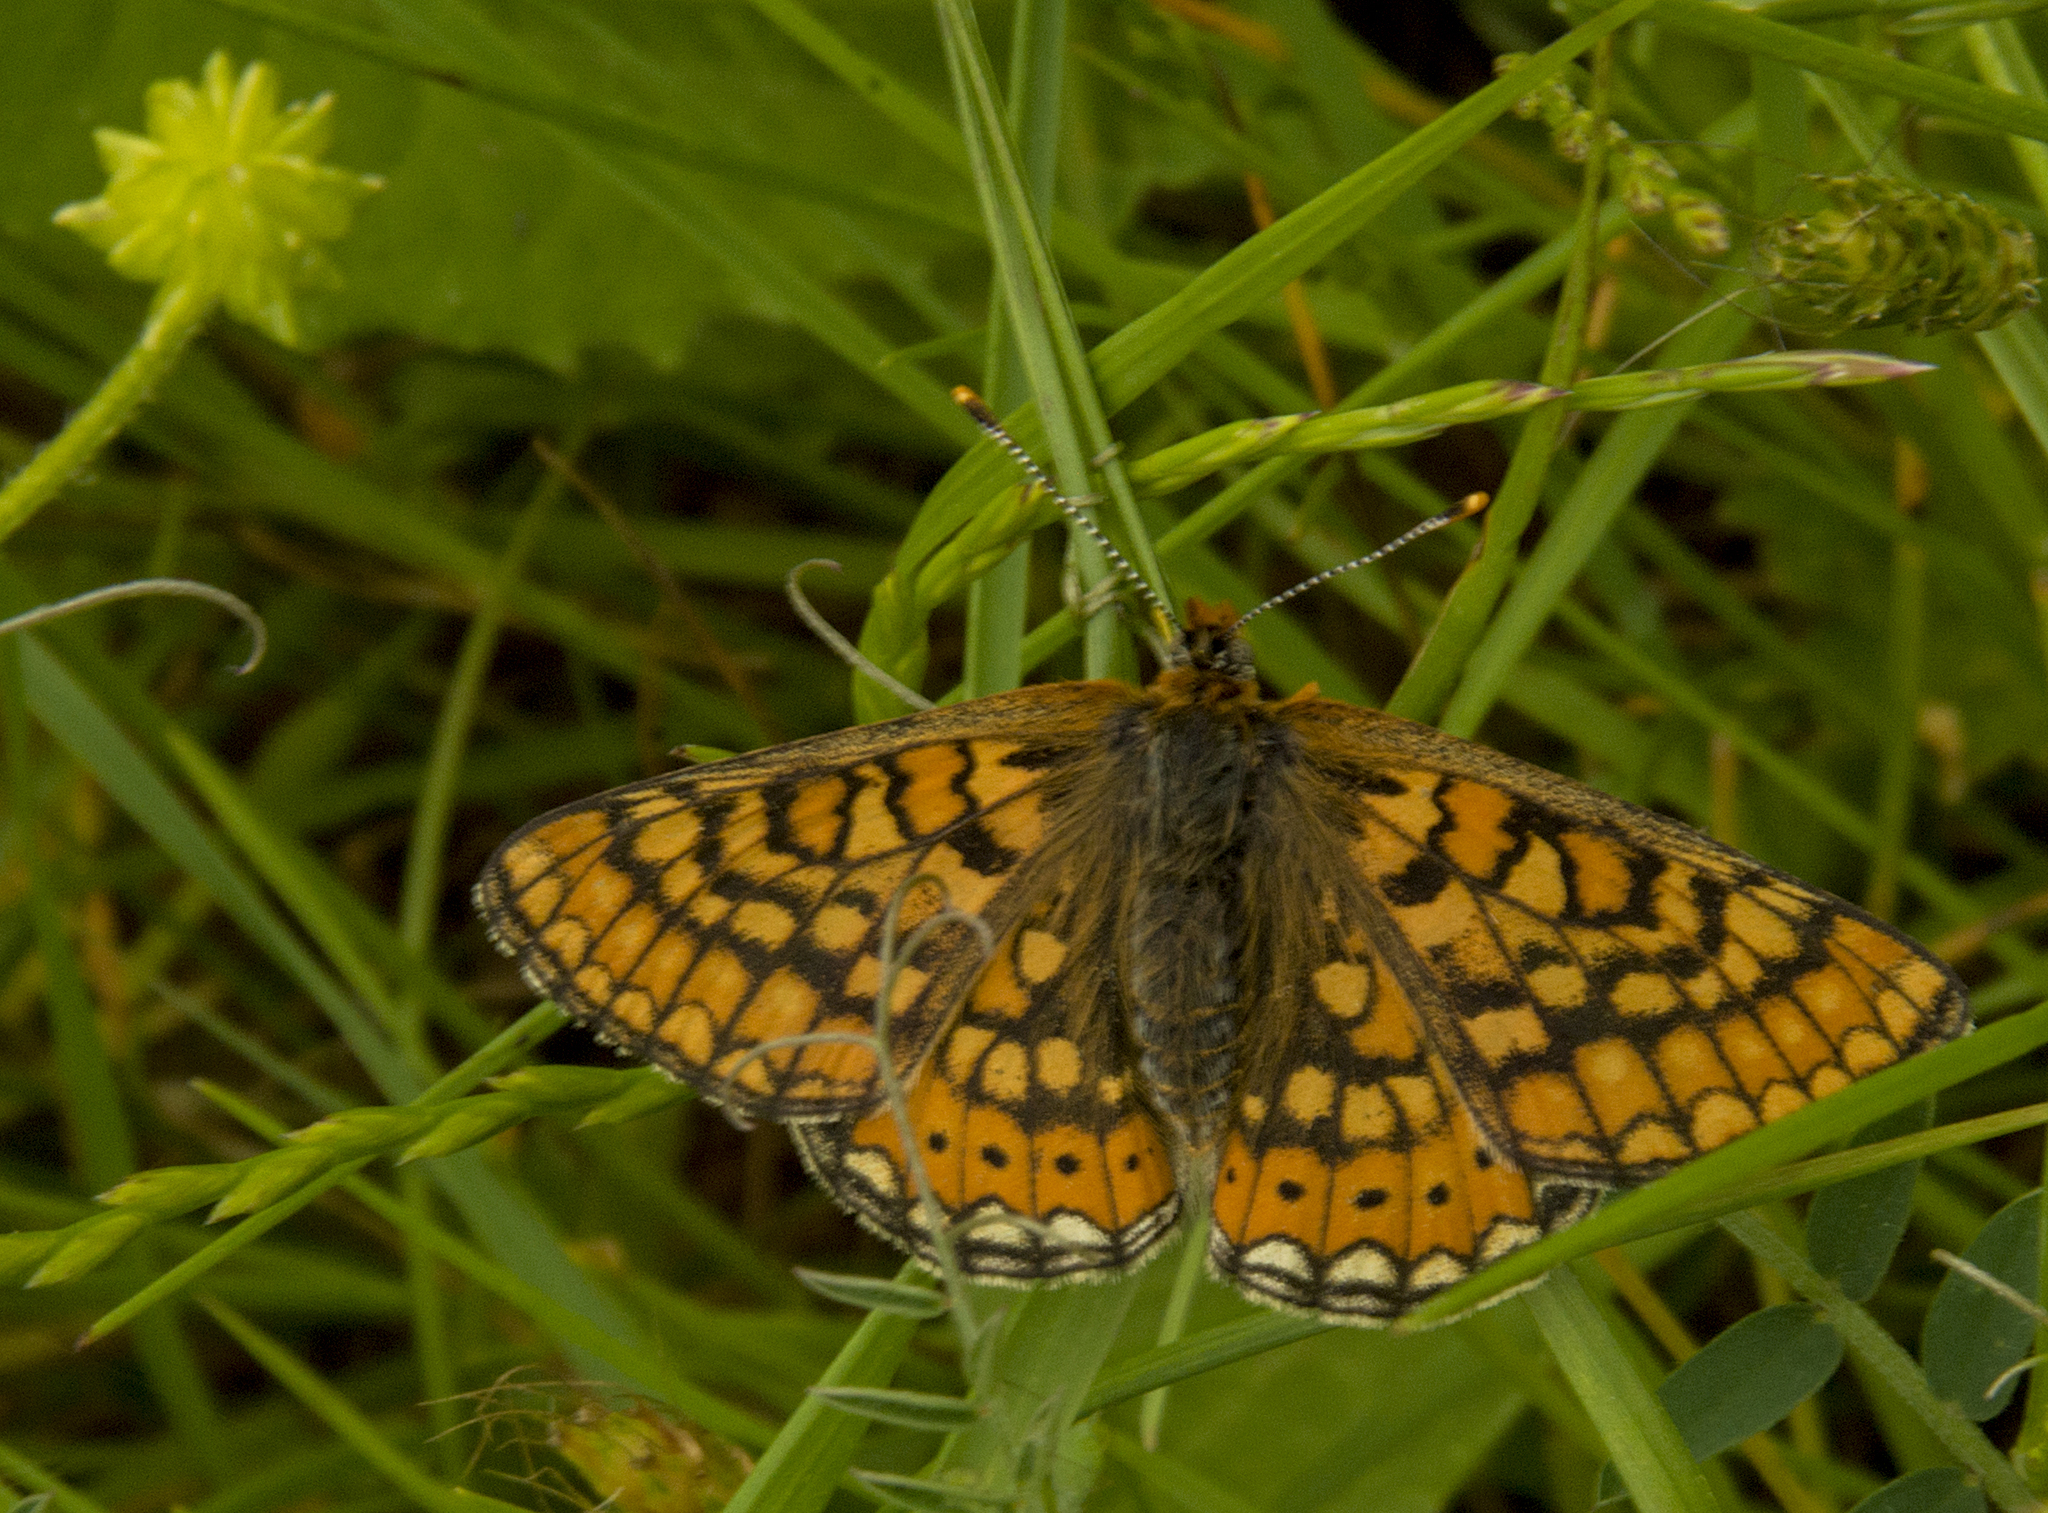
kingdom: Animalia
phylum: Arthropoda
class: Insecta
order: Lepidoptera
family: Nymphalidae
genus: Euphydryas
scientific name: Euphydryas aurinia
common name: Marsh fritillary
